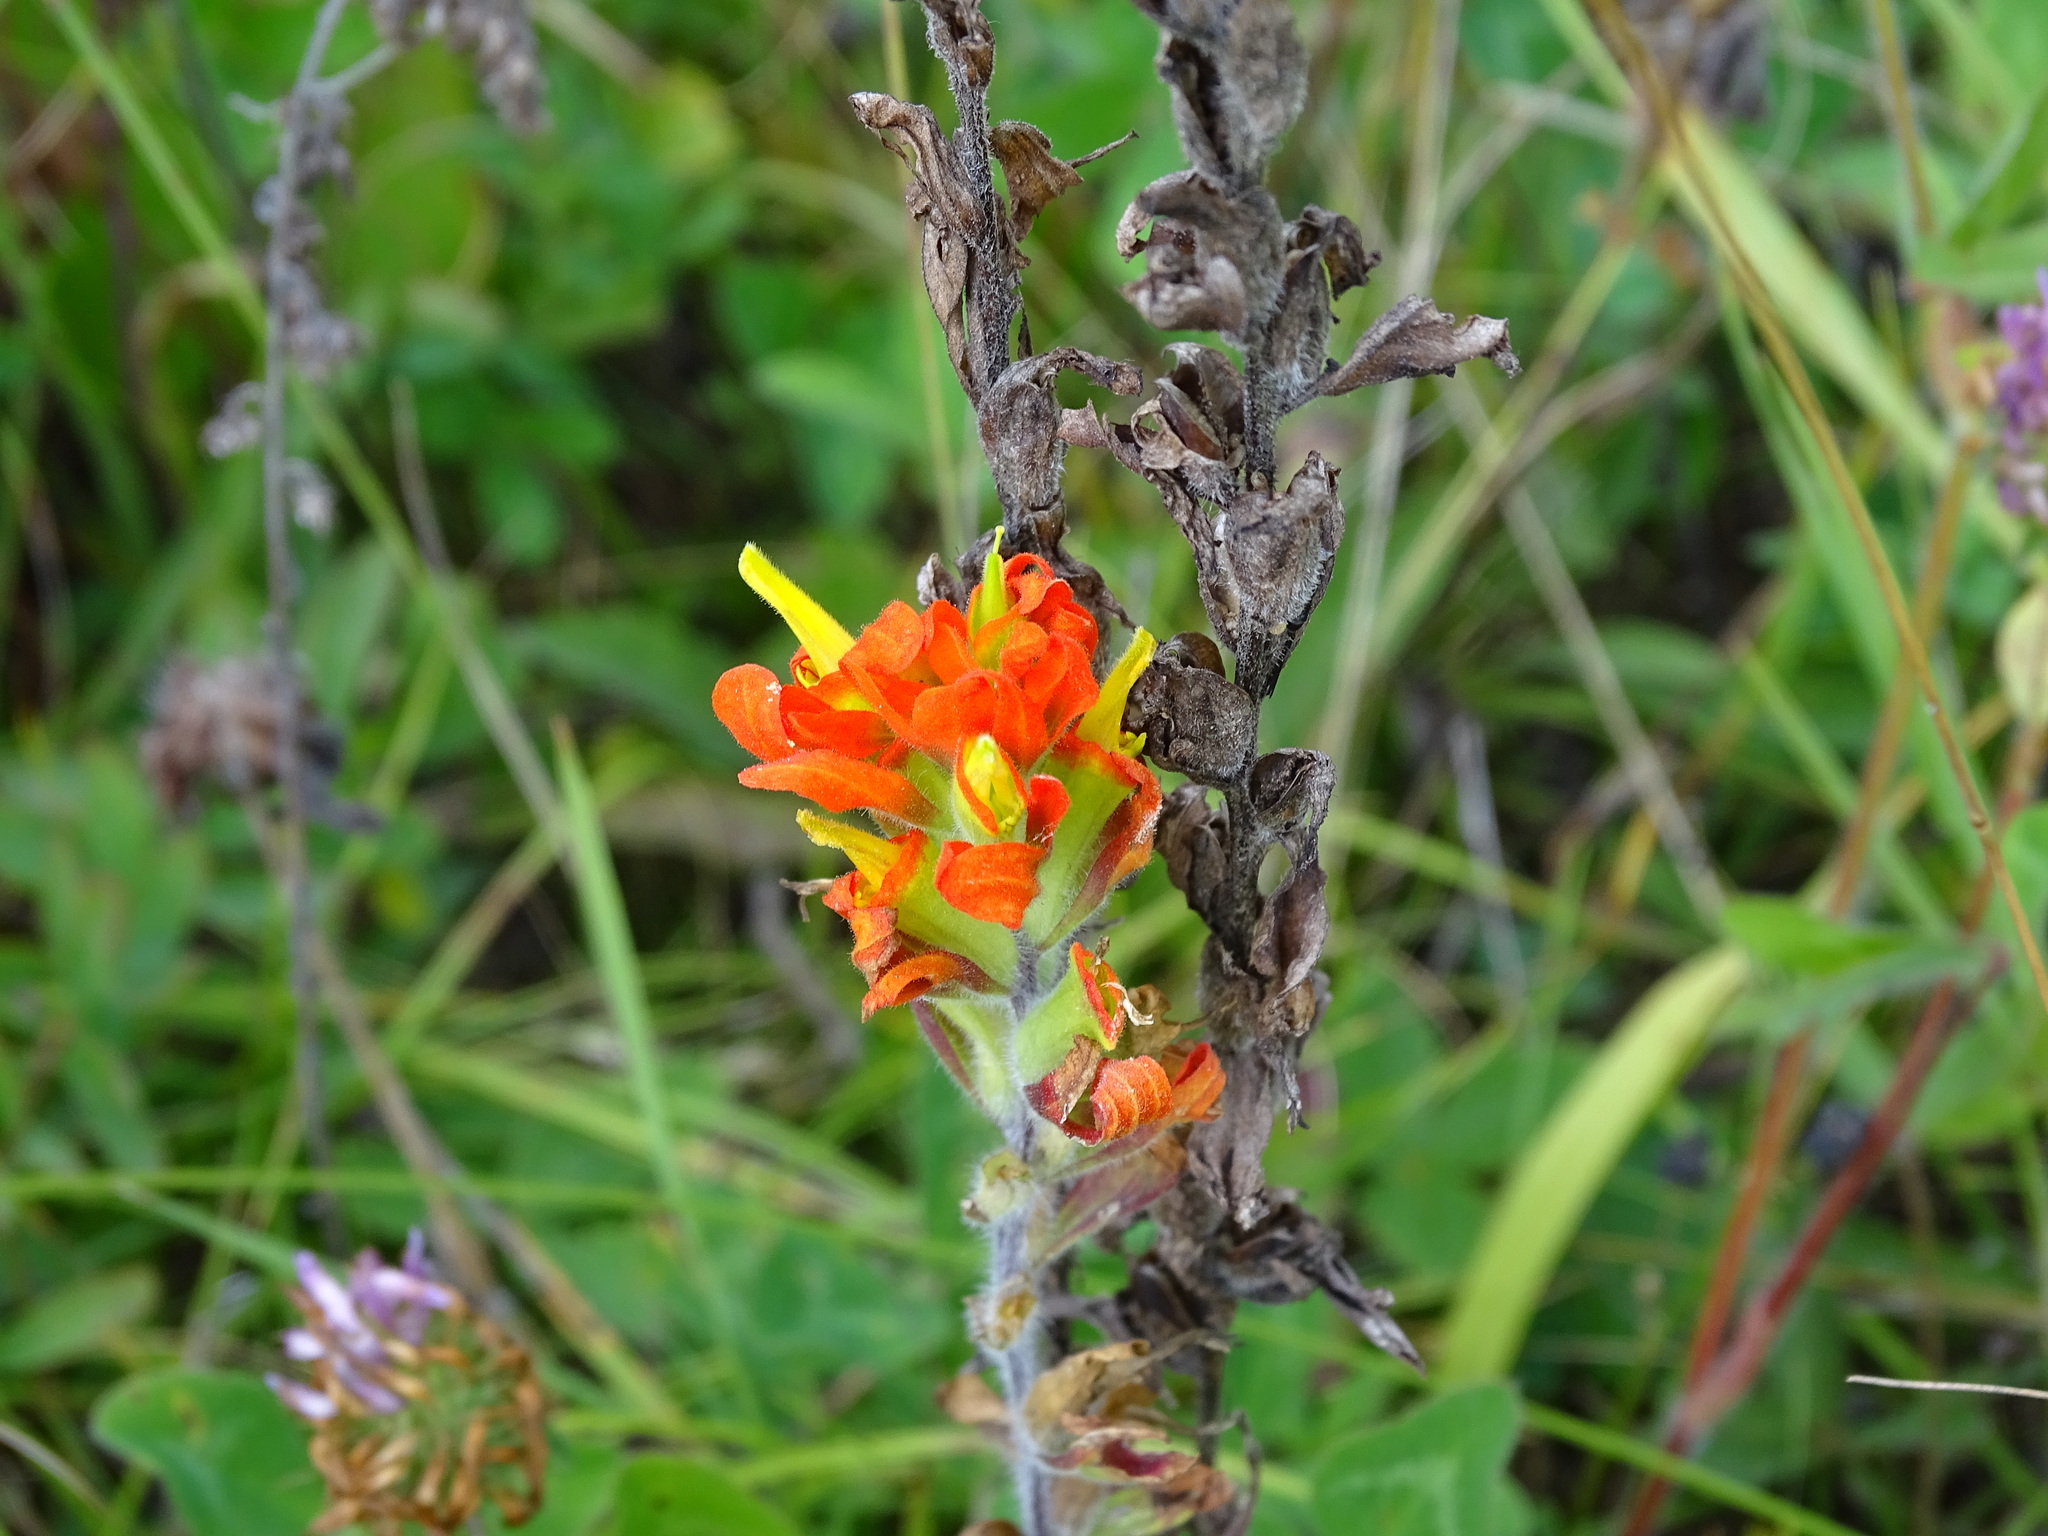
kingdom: Plantae
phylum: Tracheophyta
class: Magnoliopsida
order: Lamiales
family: Orobanchaceae
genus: Castilleja
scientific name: Castilleja coccinea
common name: Scarlet paintbrush
